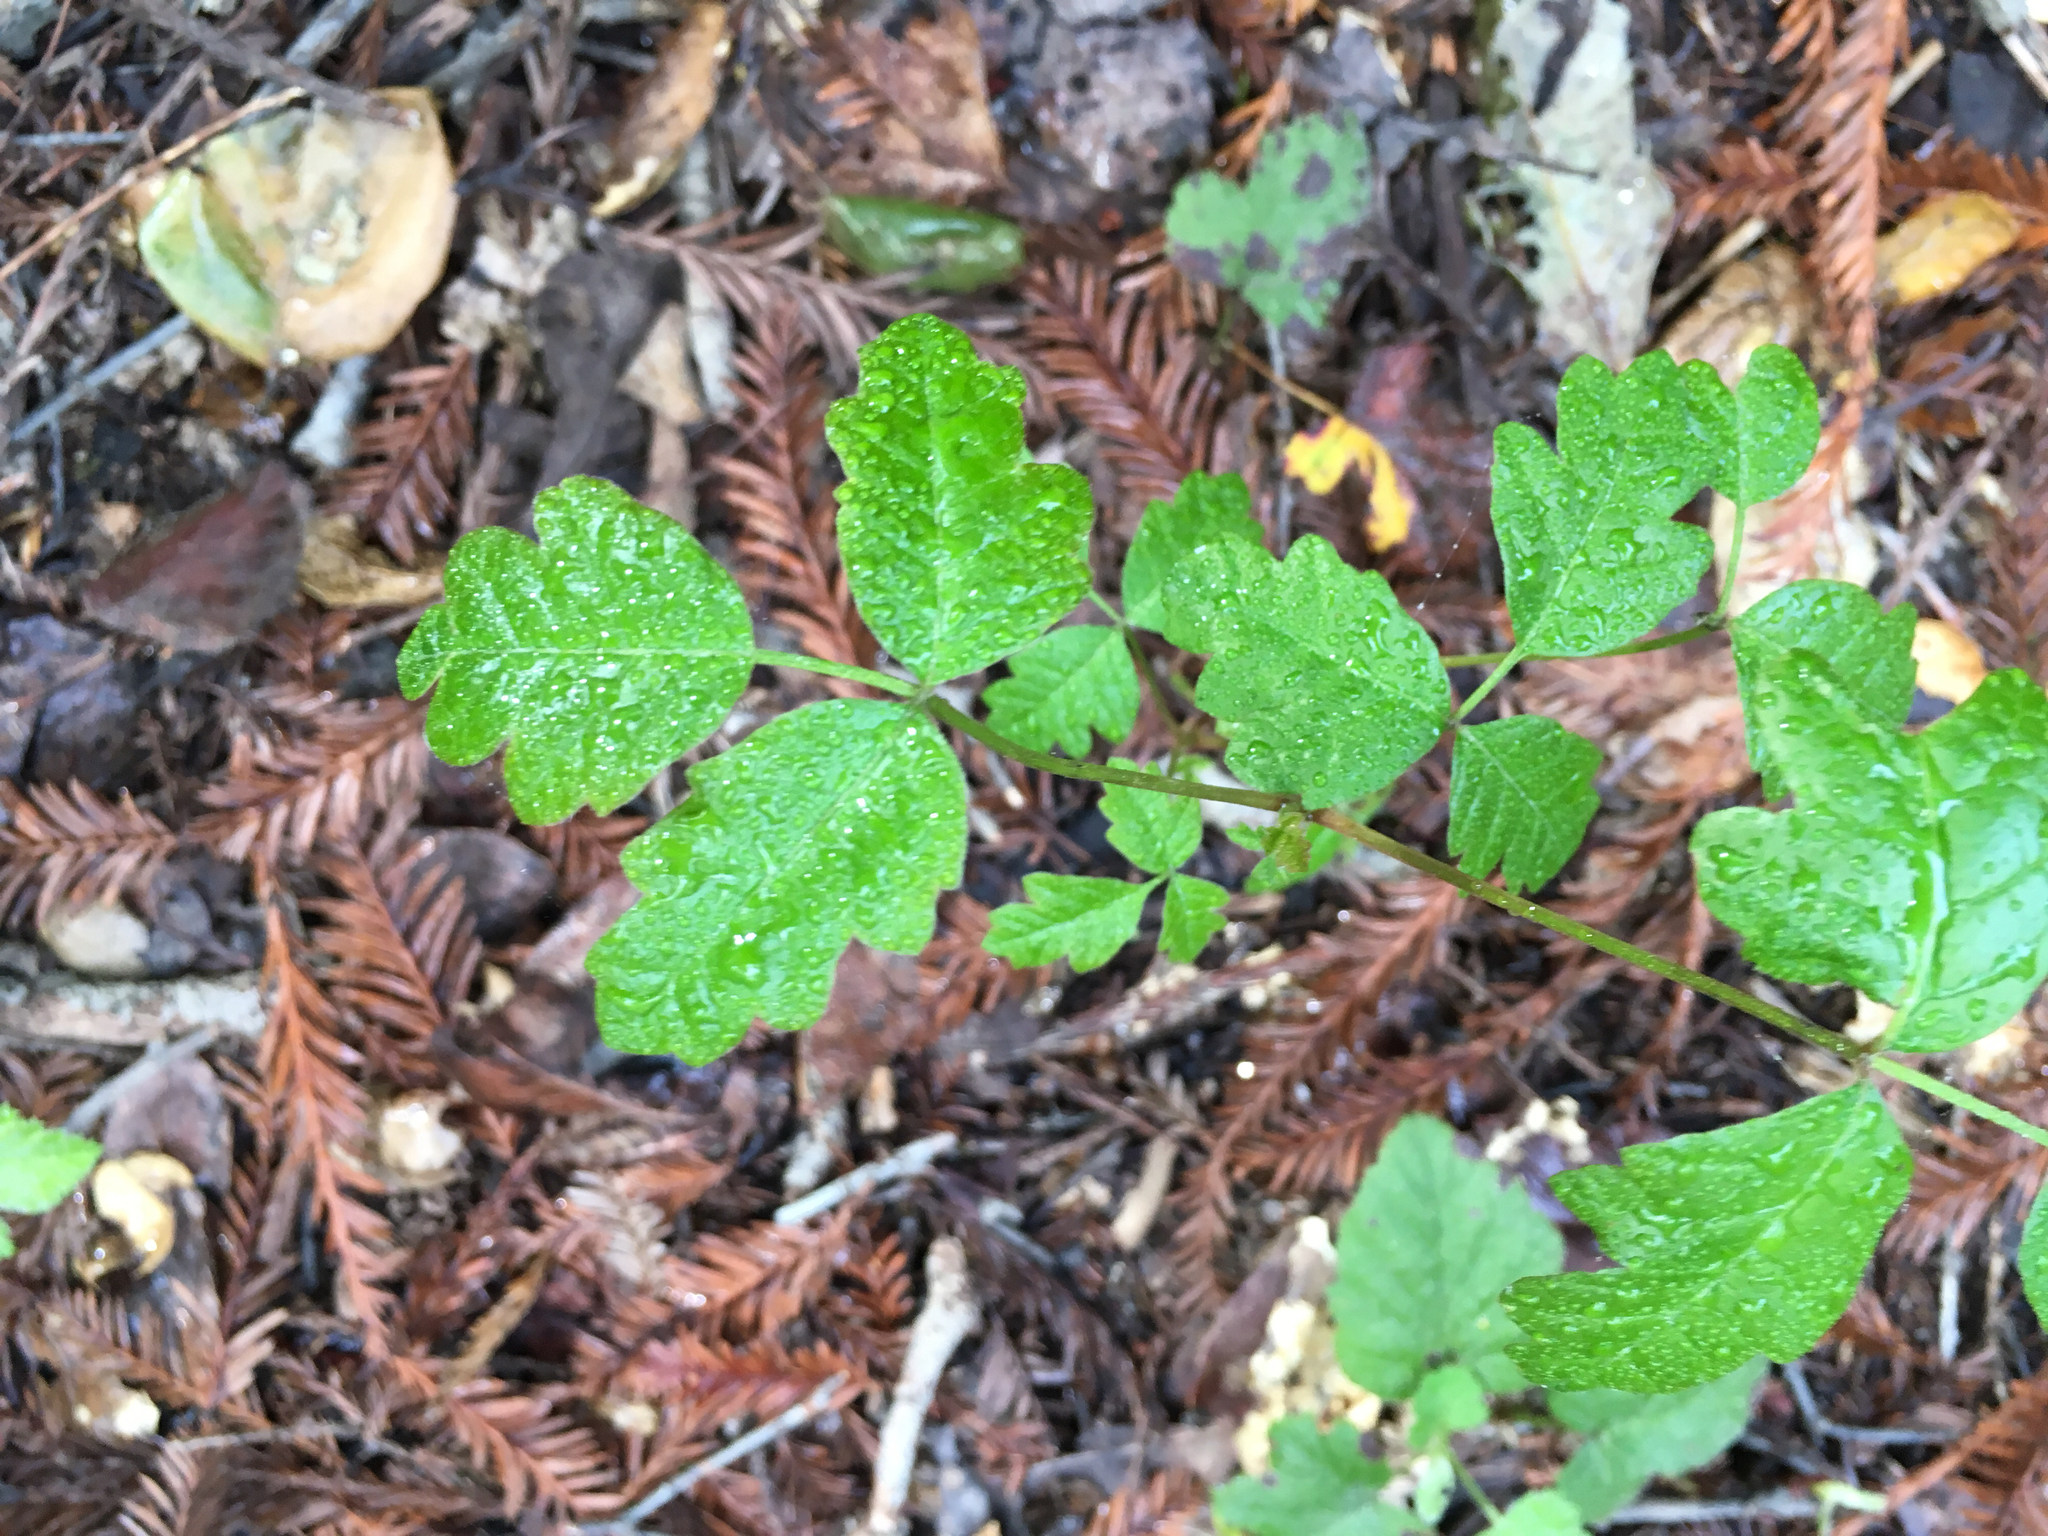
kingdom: Plantae
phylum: Tracheophyta
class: Magnoliopsida
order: Sapindales
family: Anacardiaceae
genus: Toxicodendron
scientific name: Toxicodendron diversilobum
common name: Pacific poison-oak
